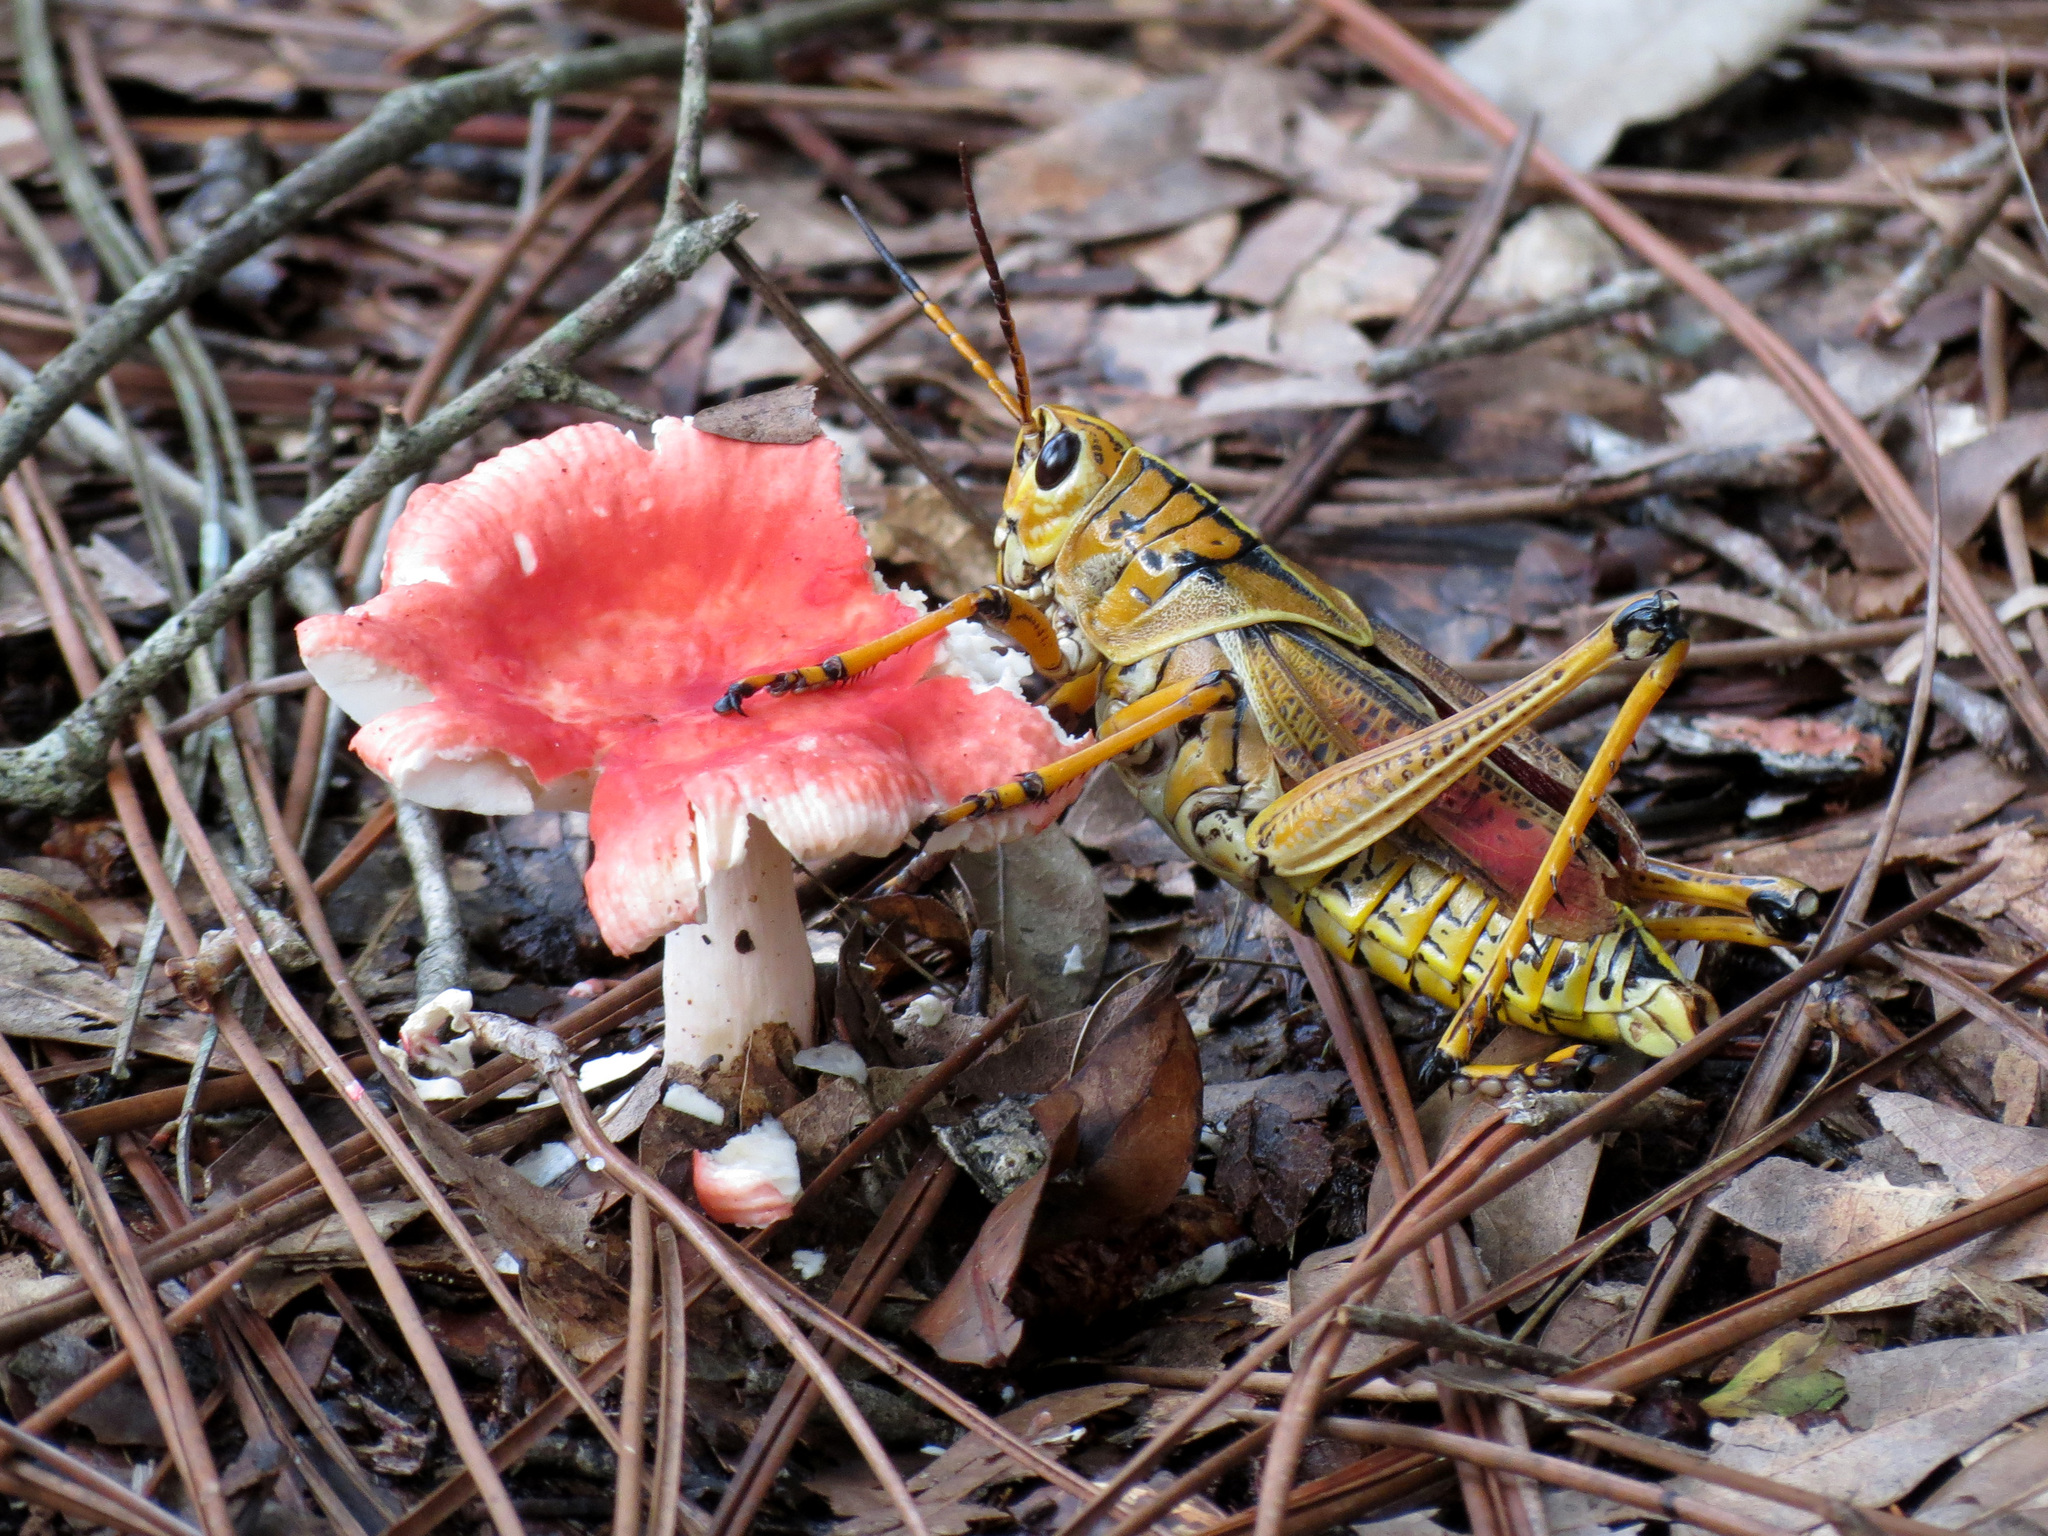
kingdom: Animalia
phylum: Arthropoda
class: Insecta
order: Orthoptera
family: Romaleidae
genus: Romalea
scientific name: Romalea microptera
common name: Eastern lubber grasshopper
